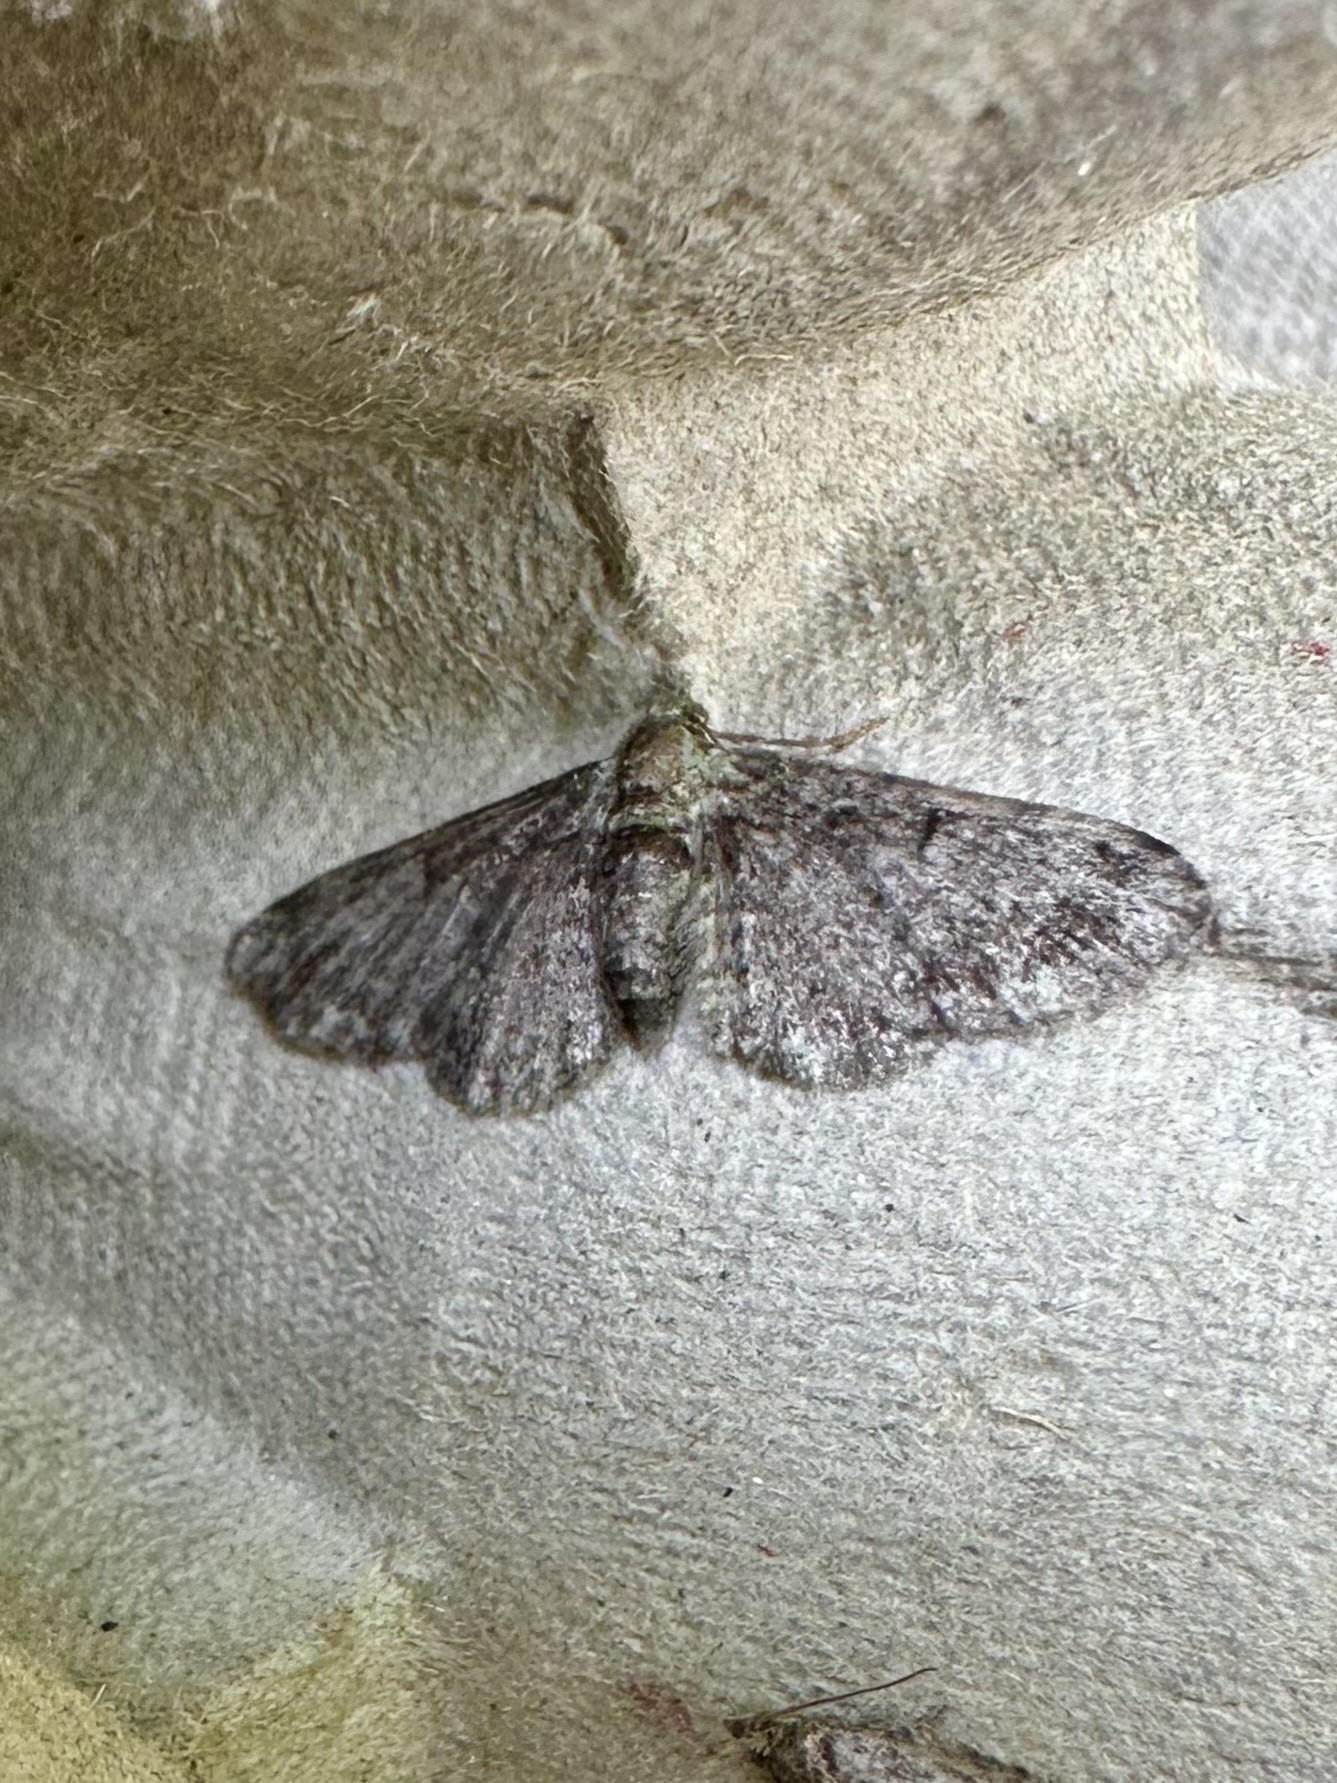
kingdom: Animalia
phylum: Arthropoda
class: Insecta
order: Lepidoptera
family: Geometridae
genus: Pasiphila
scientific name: Pasiphila rectangulata
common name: Green pug
